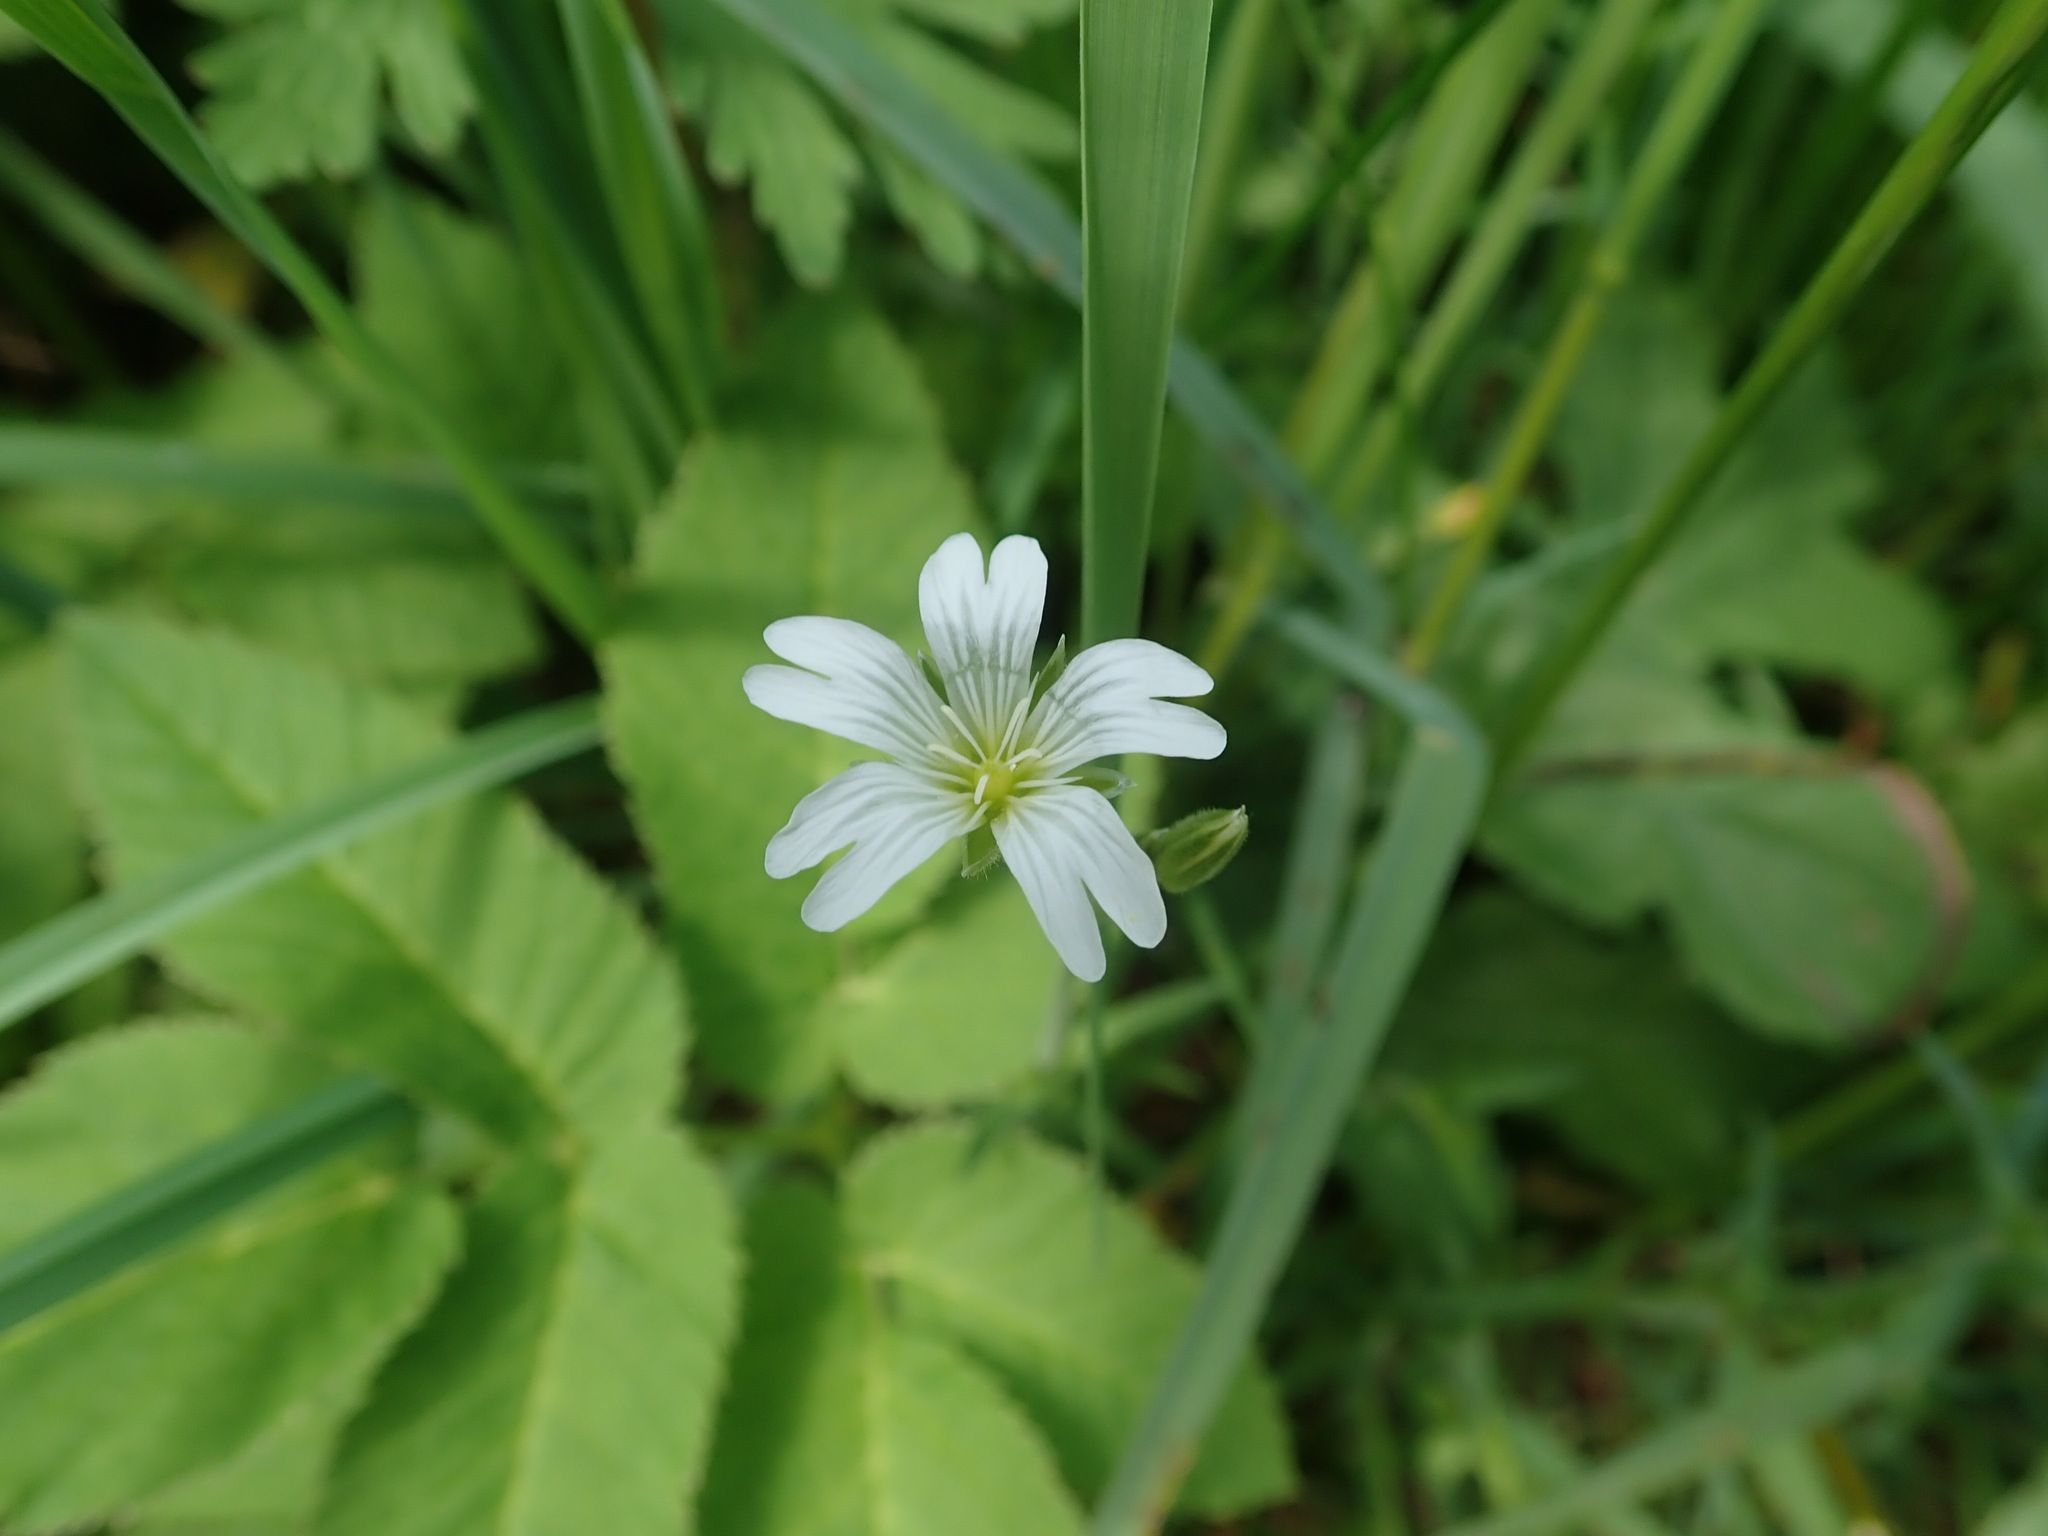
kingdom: Plantae
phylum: Tracheophyta
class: Magnoliopsida
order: Caryophyllales
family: Caryophyllaceae
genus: Cerastium
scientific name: Cerastium arvense
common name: Field mouse-ear
